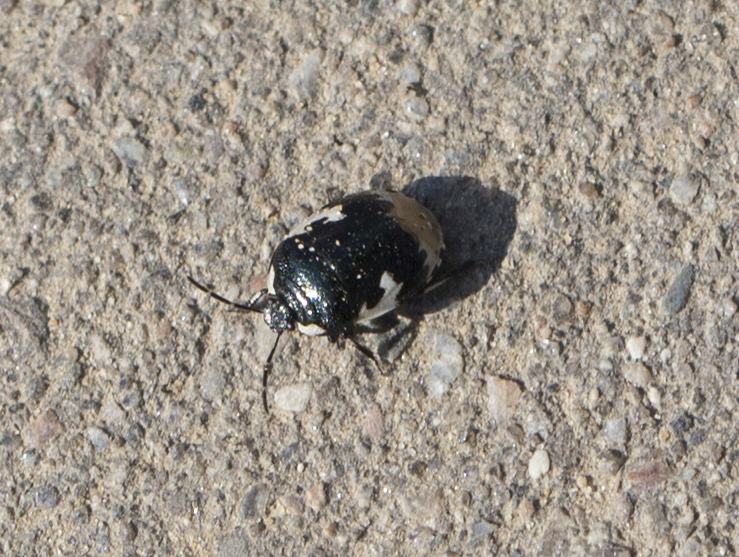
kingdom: Animalia
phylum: Arthropoda
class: Insecta
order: Hemiptera
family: Cydnidae
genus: Tritomegas
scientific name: Tritomegas bicolor
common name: Pied shieldbug
